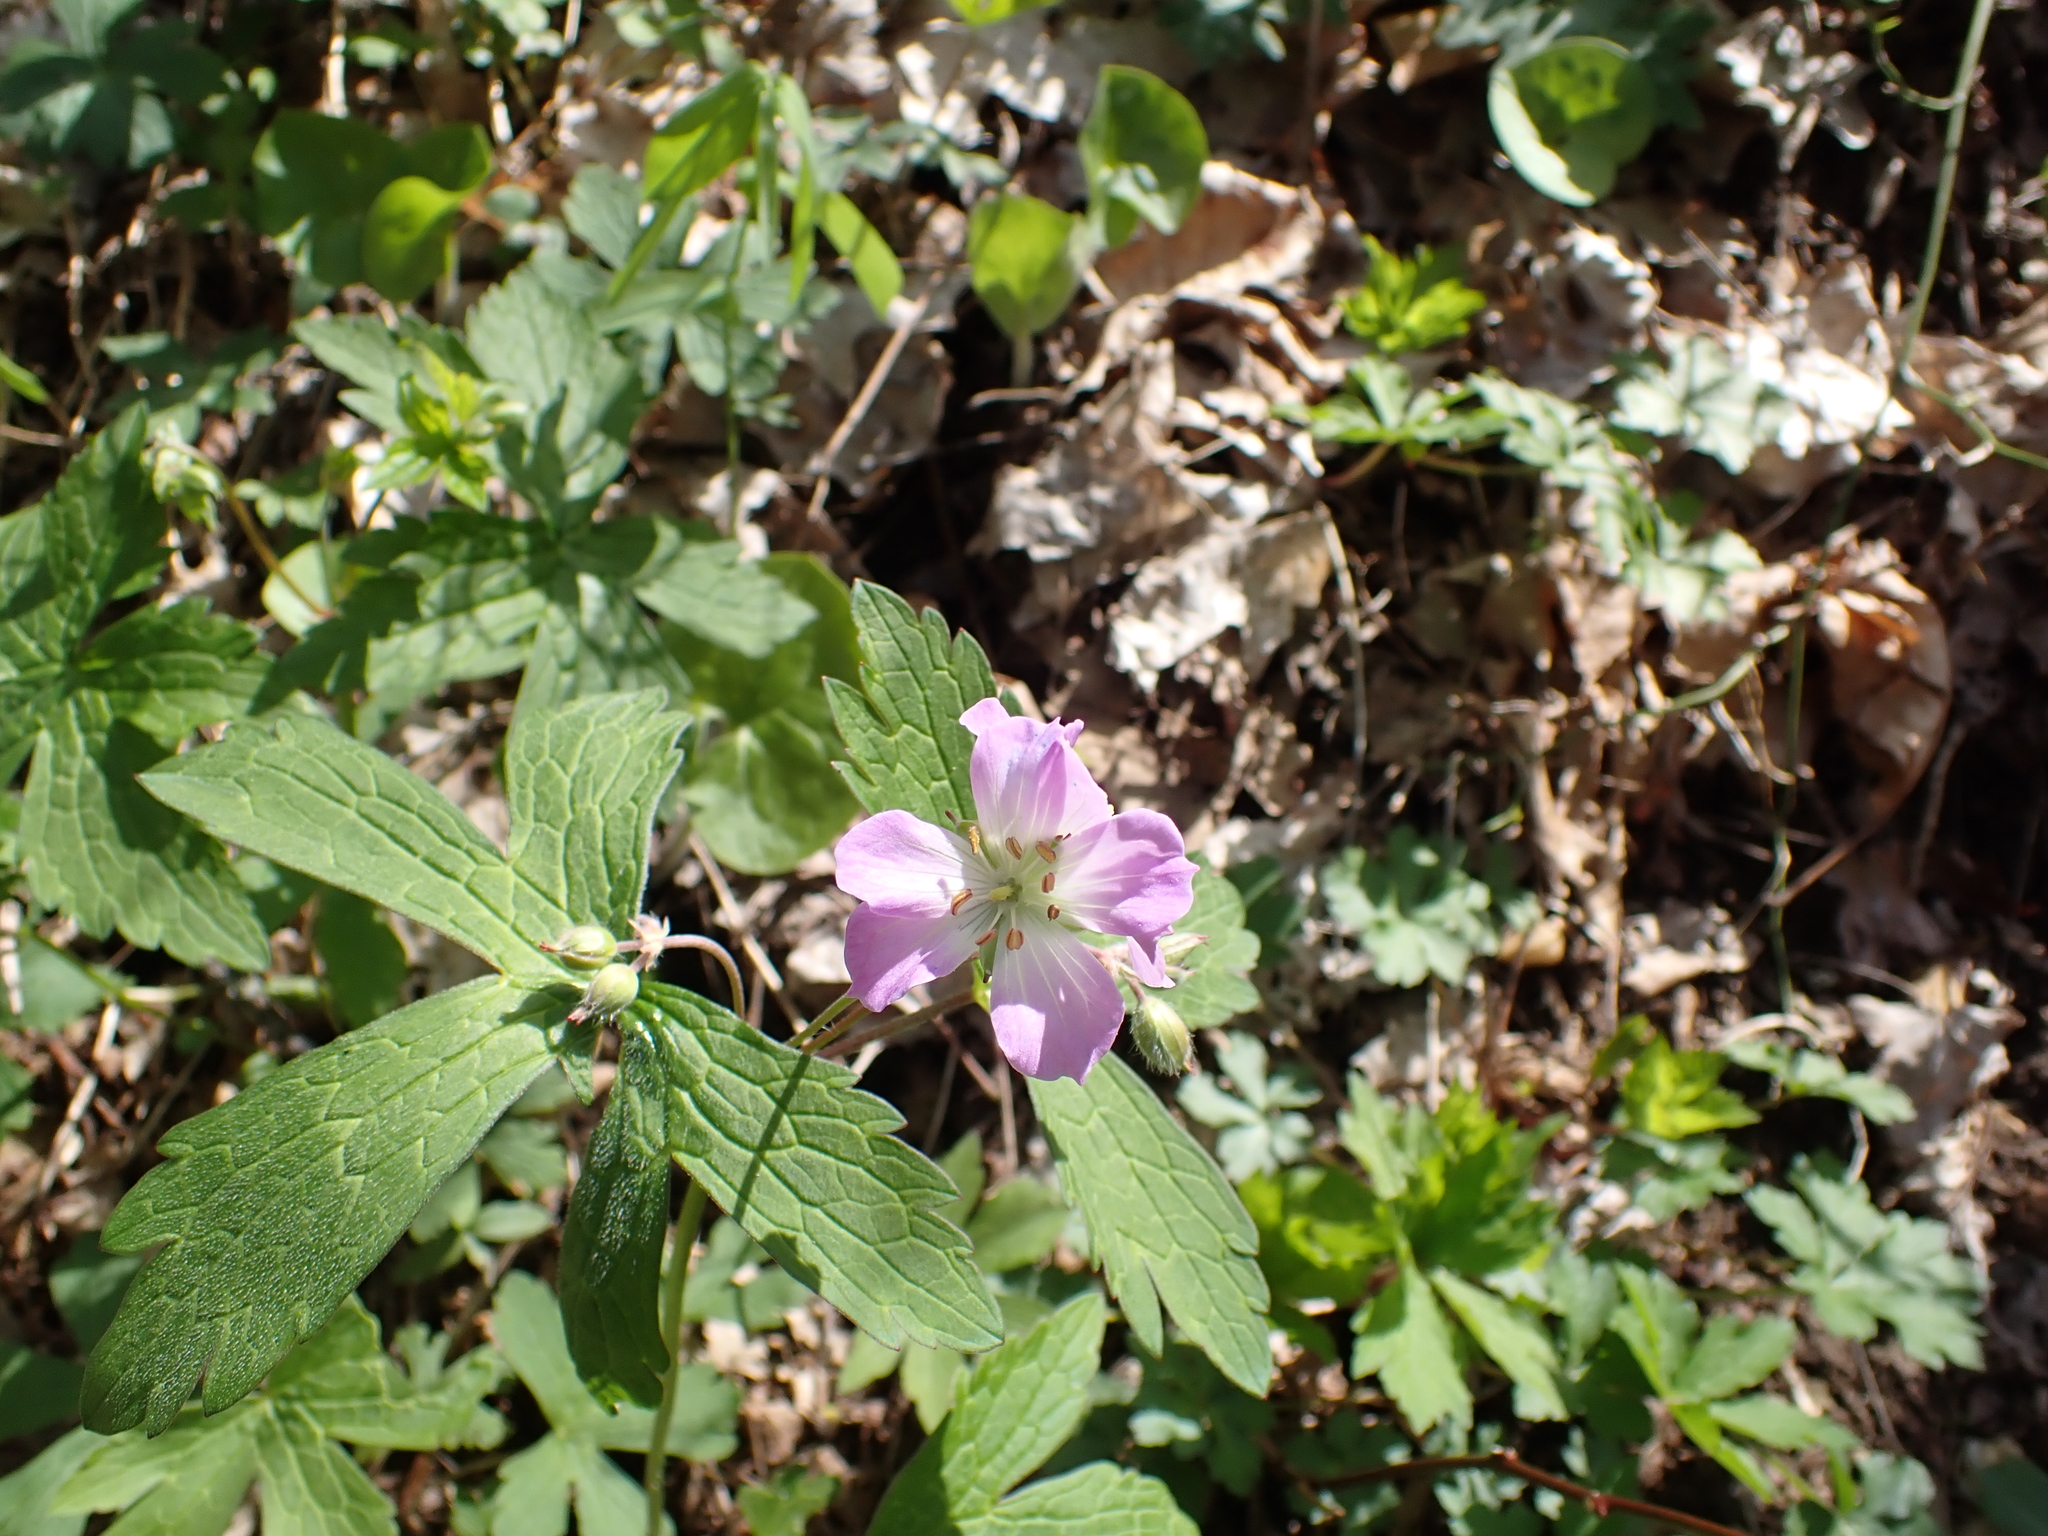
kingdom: Plantae
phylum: Tracheophyta
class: Magnoliopsida
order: Geraniales
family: Geraniaceae
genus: Geranium
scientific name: Geranium maculatum
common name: Spotted geranium
